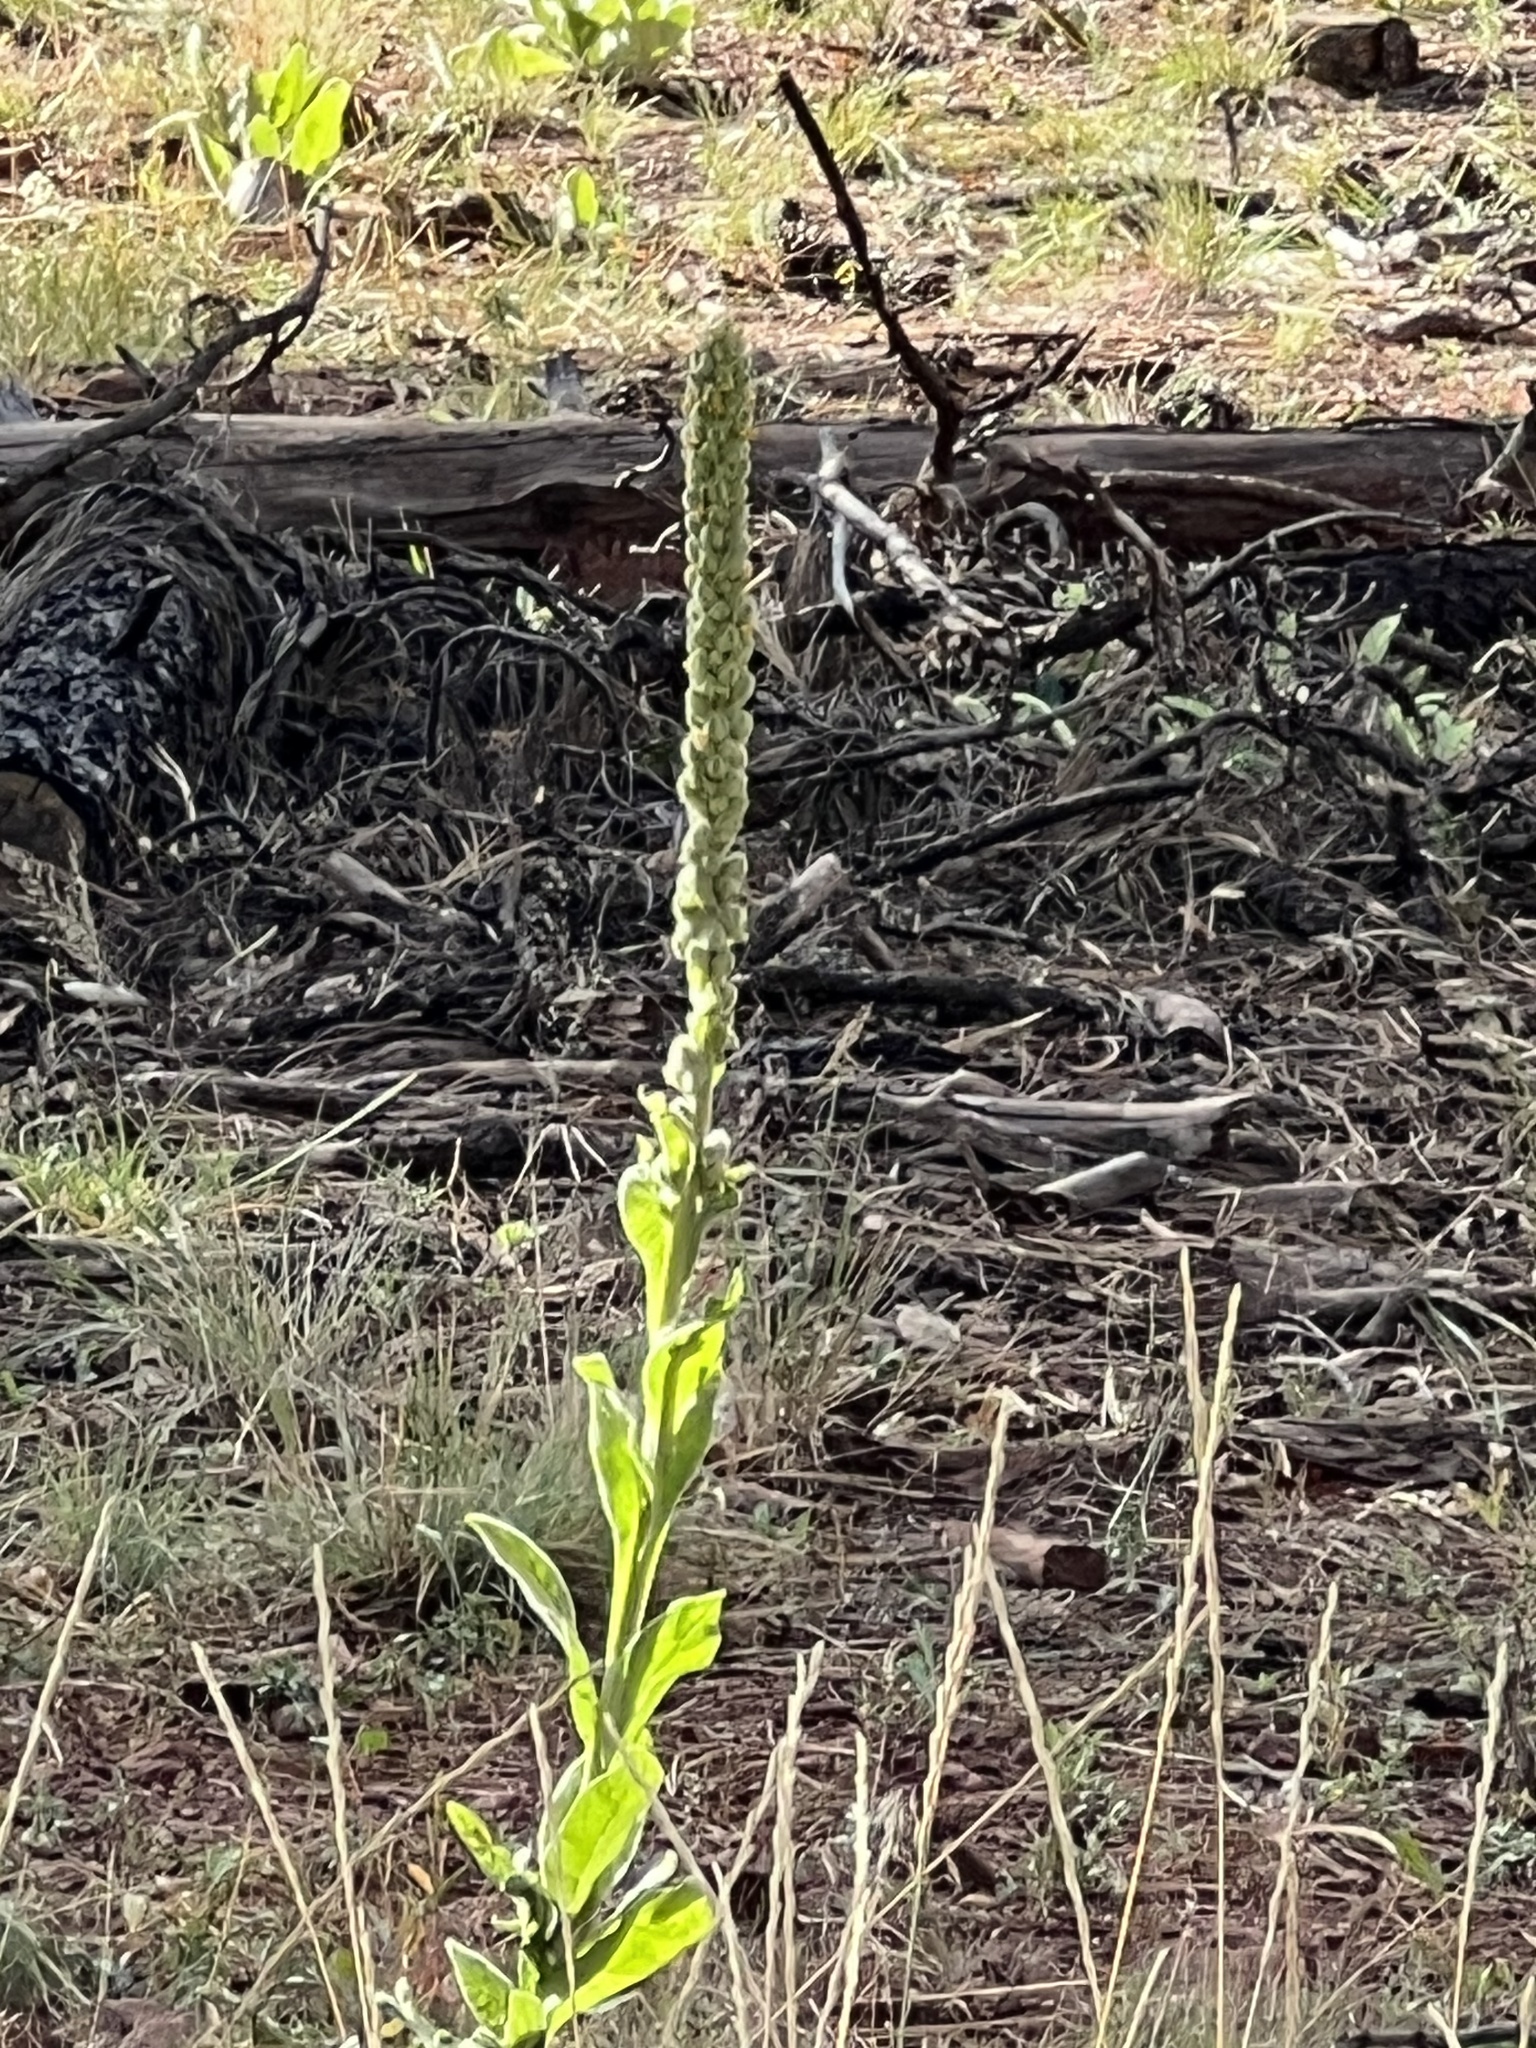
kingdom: Plantae
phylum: Tracheophyta
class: Magnoliopsida
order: Lamiales
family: Scrophulariaceae
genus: Verbascum
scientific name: Verbascum thapsus
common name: Common mullein
